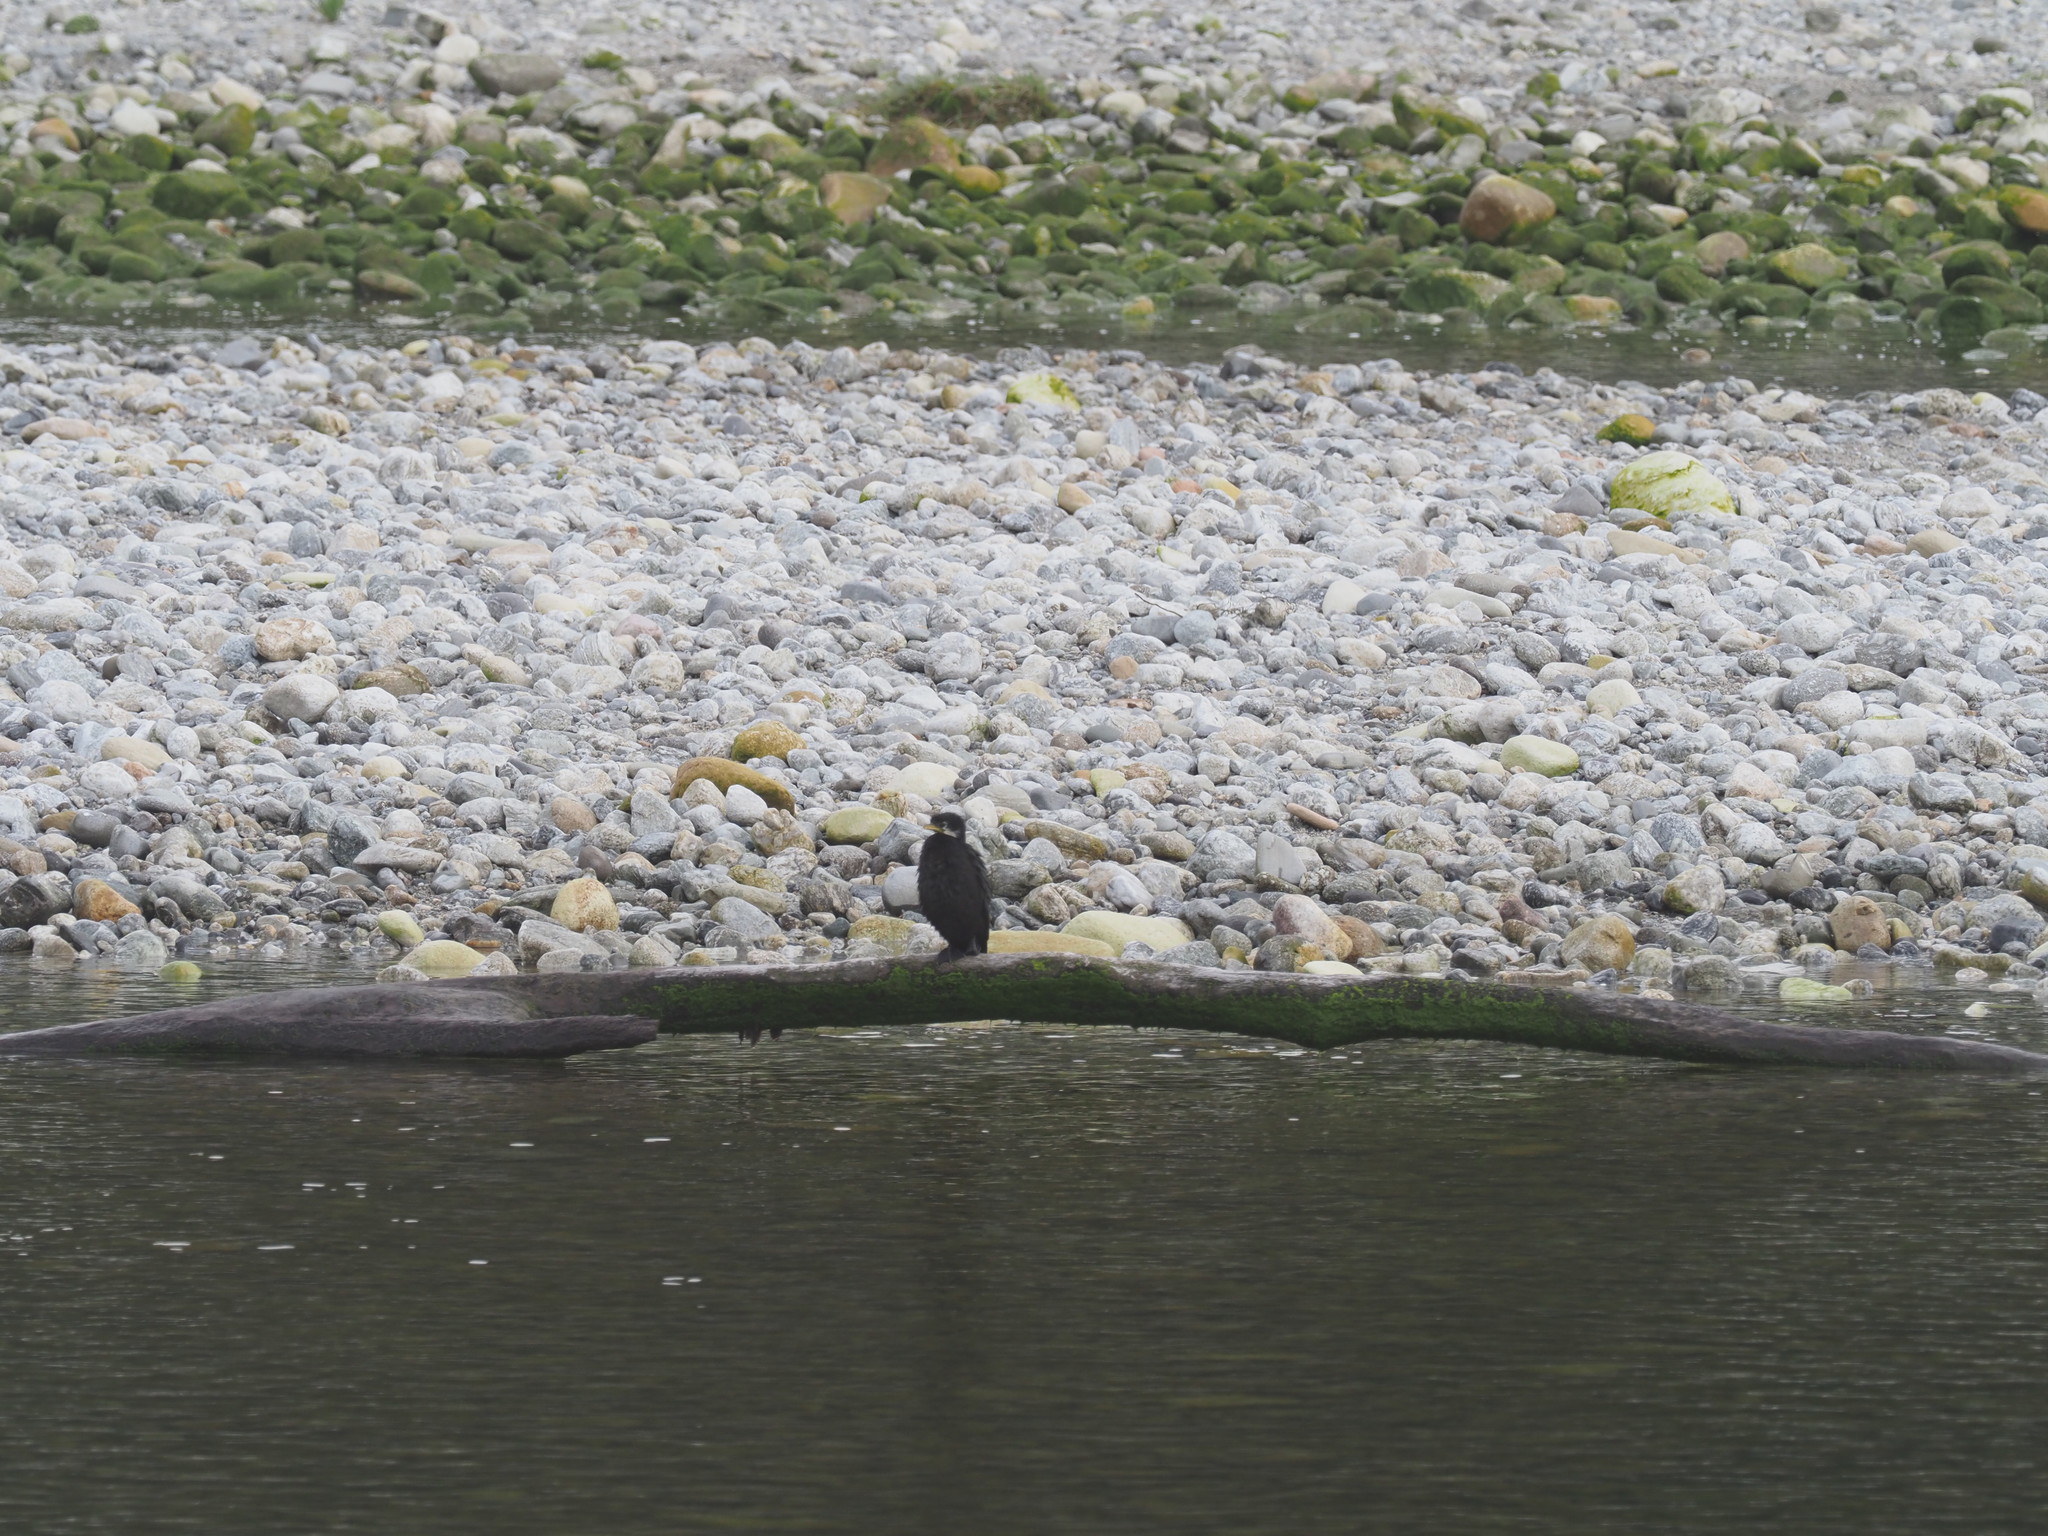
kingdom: Animalia
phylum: Chordata
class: Aves
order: Suliformes
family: Phalacrocoracidae
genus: Microcarbo
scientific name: Microcarbo melanoleucos
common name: Little pied cormorant
